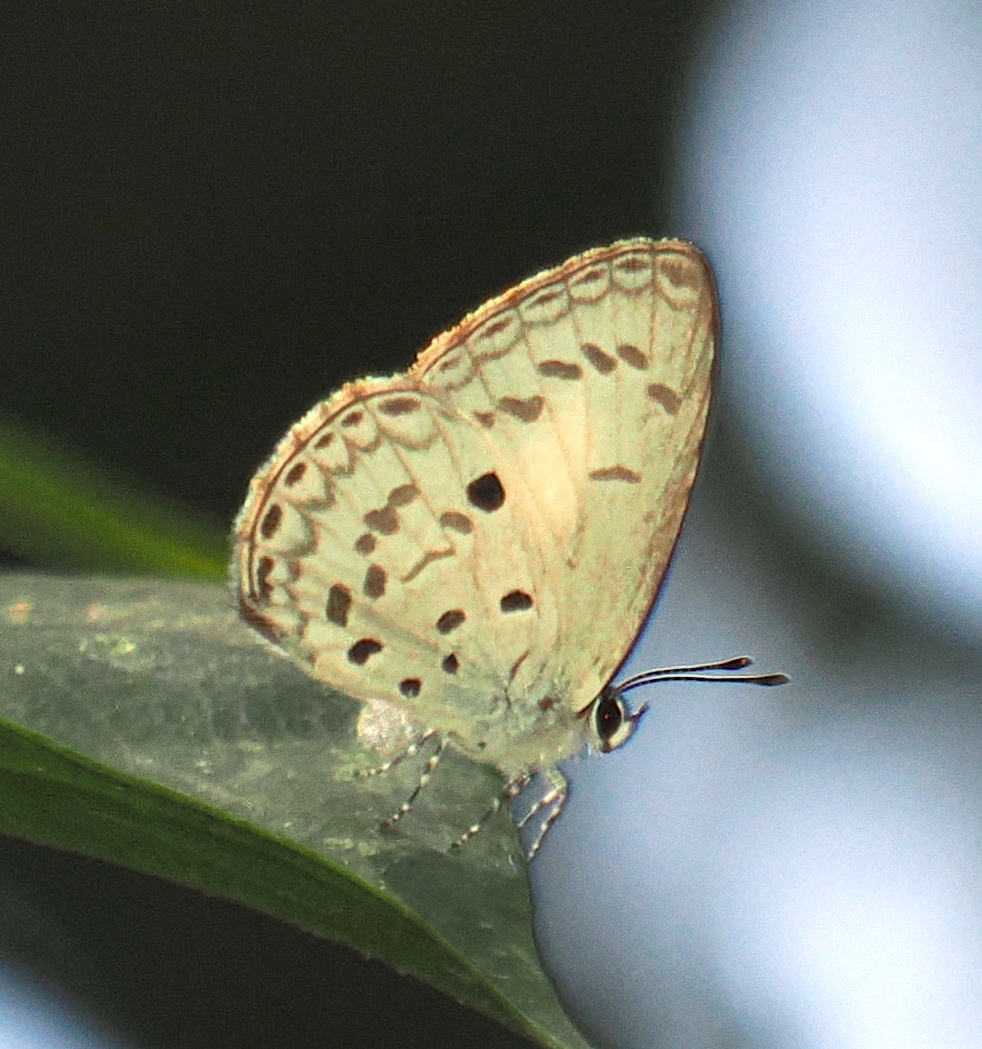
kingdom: Animalia
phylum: Arthropoda
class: Insecta
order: Lepidoptera
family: Lycaenidae
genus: Acytolepis
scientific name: Acytolepis puspa
